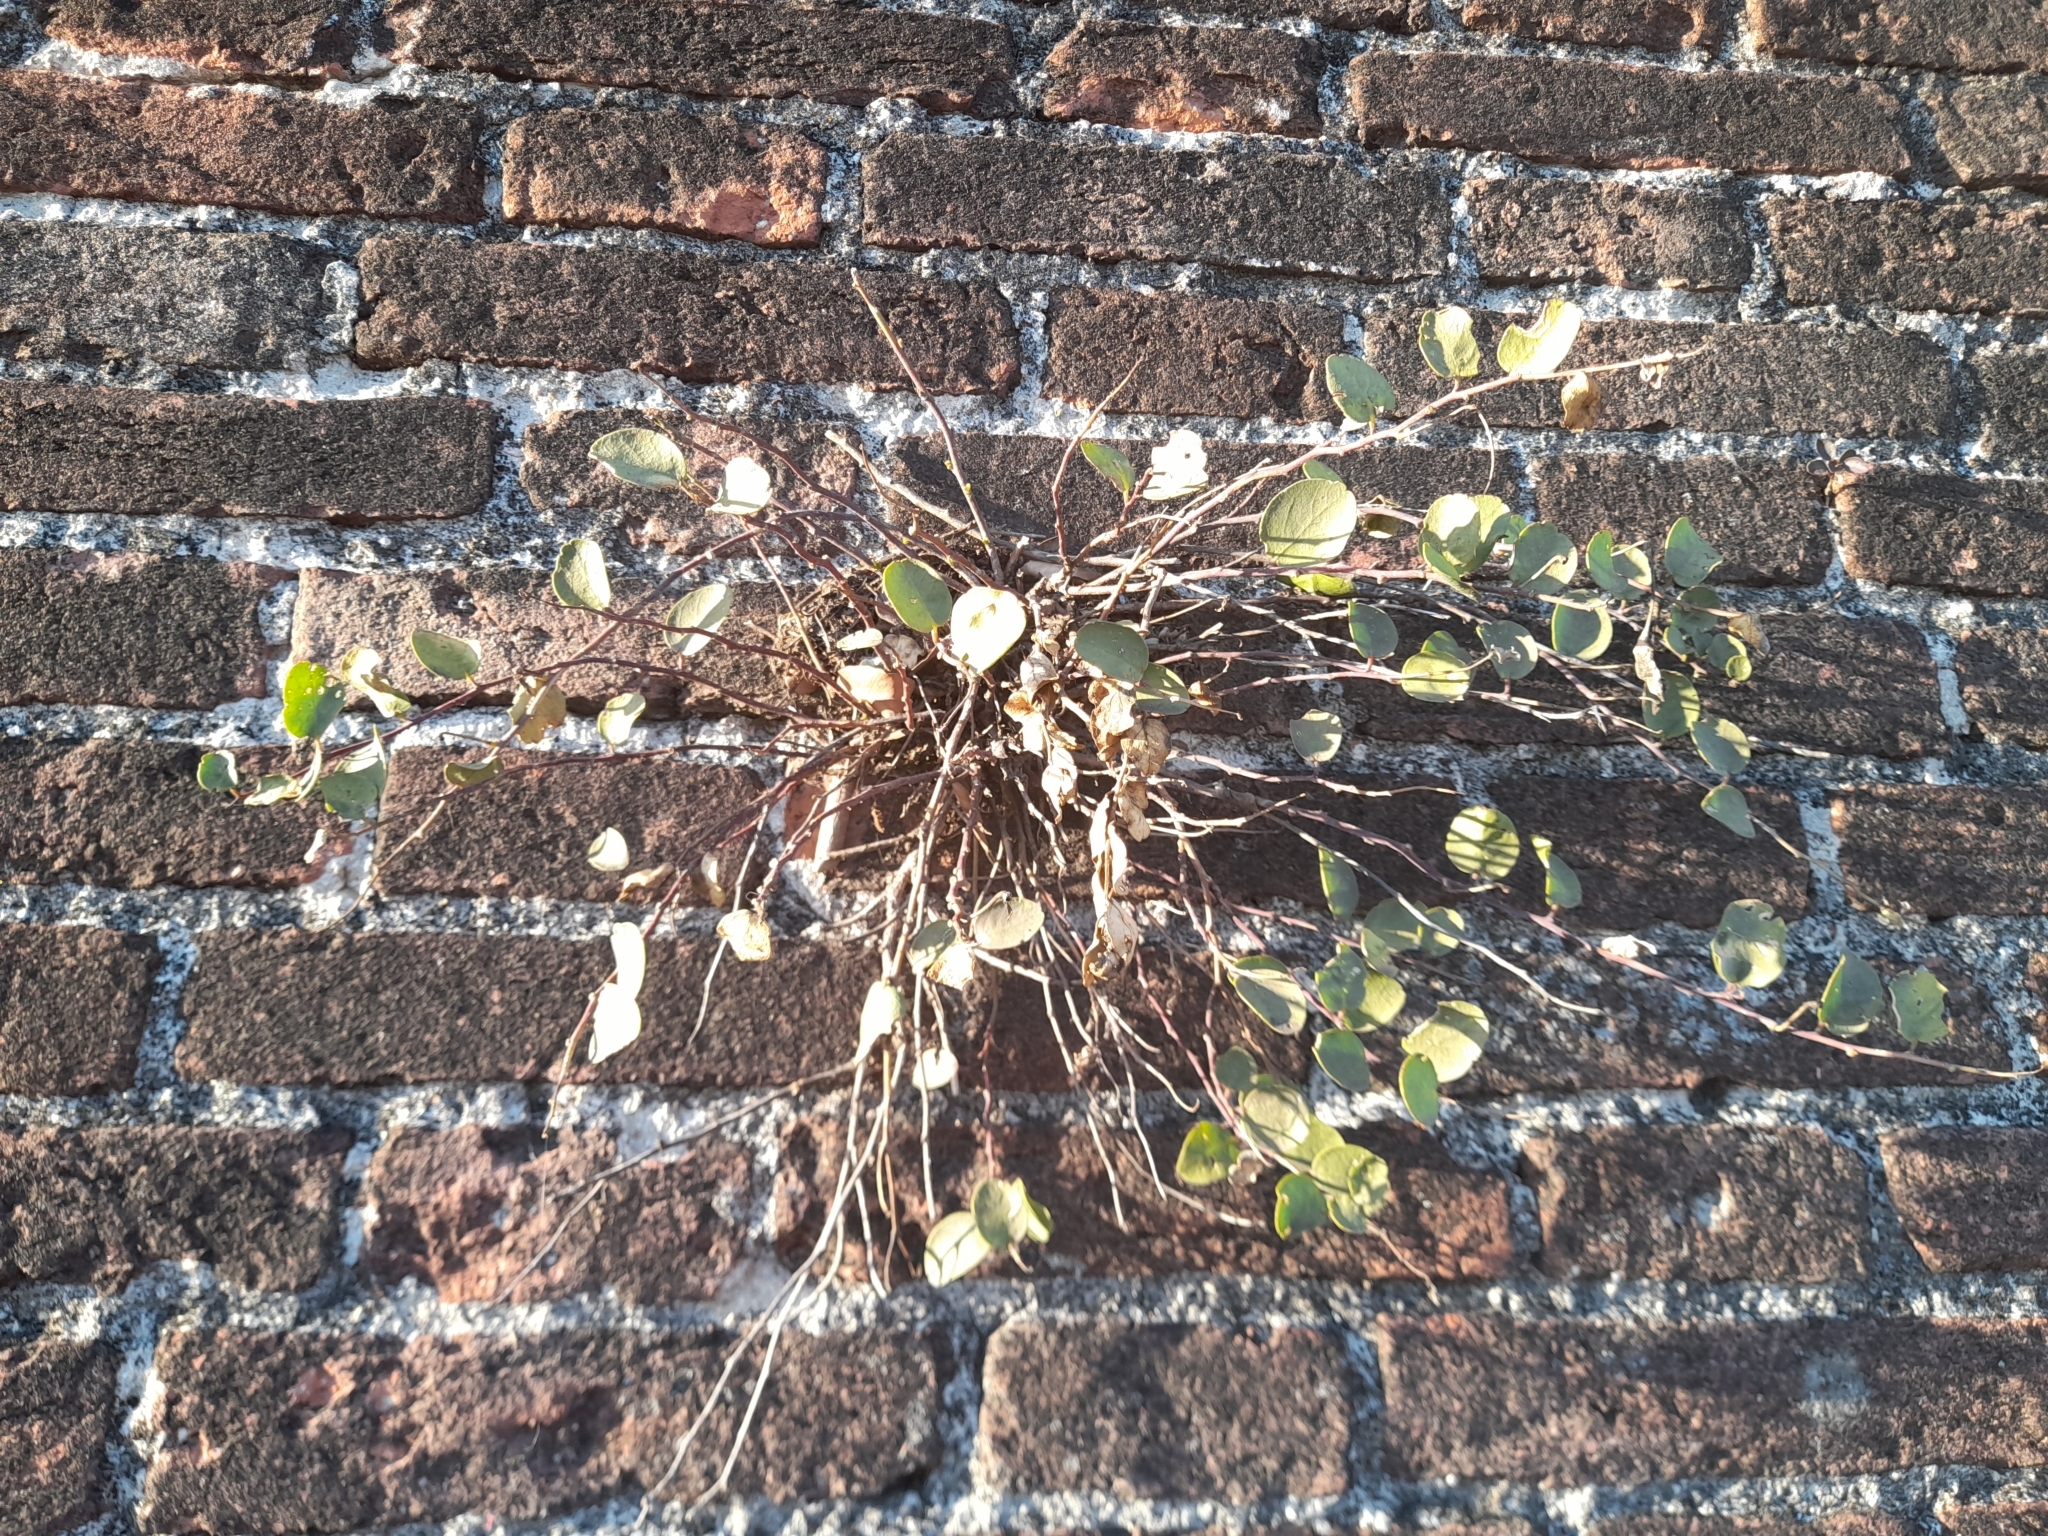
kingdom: Plantae
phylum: Tracheophyta
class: Magnoliopsida
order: Brassicales
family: Capparaceae
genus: Capparis
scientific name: Capparis orientalis
